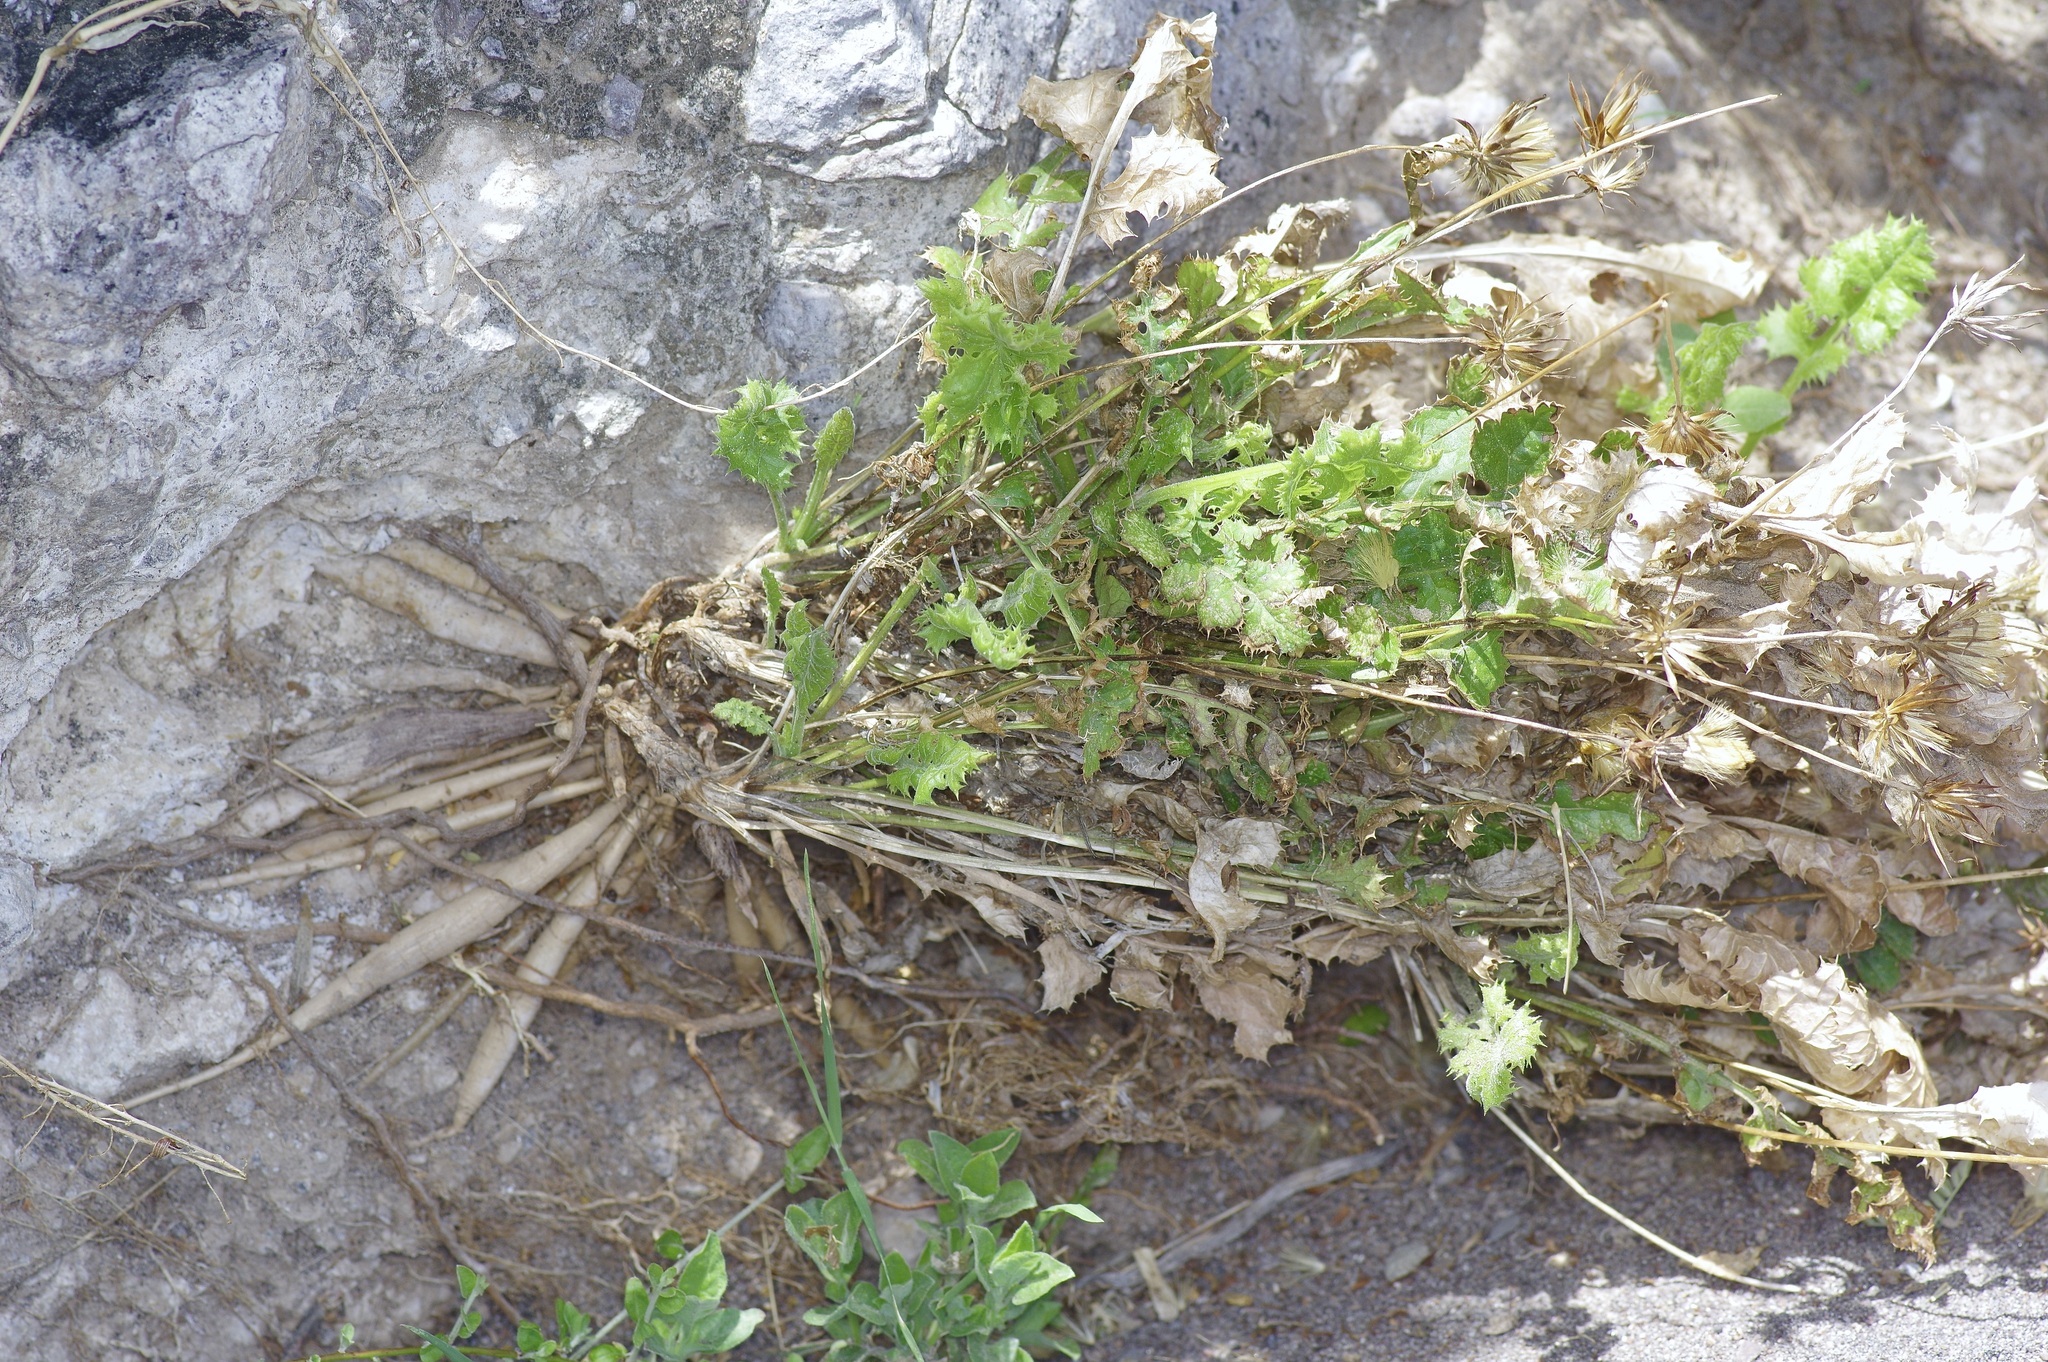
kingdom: Plantae
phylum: Tracheophyta
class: Magnoliopsida
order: Asterales
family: Asteraceae
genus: Acourtia
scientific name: Acourtia runcinata
